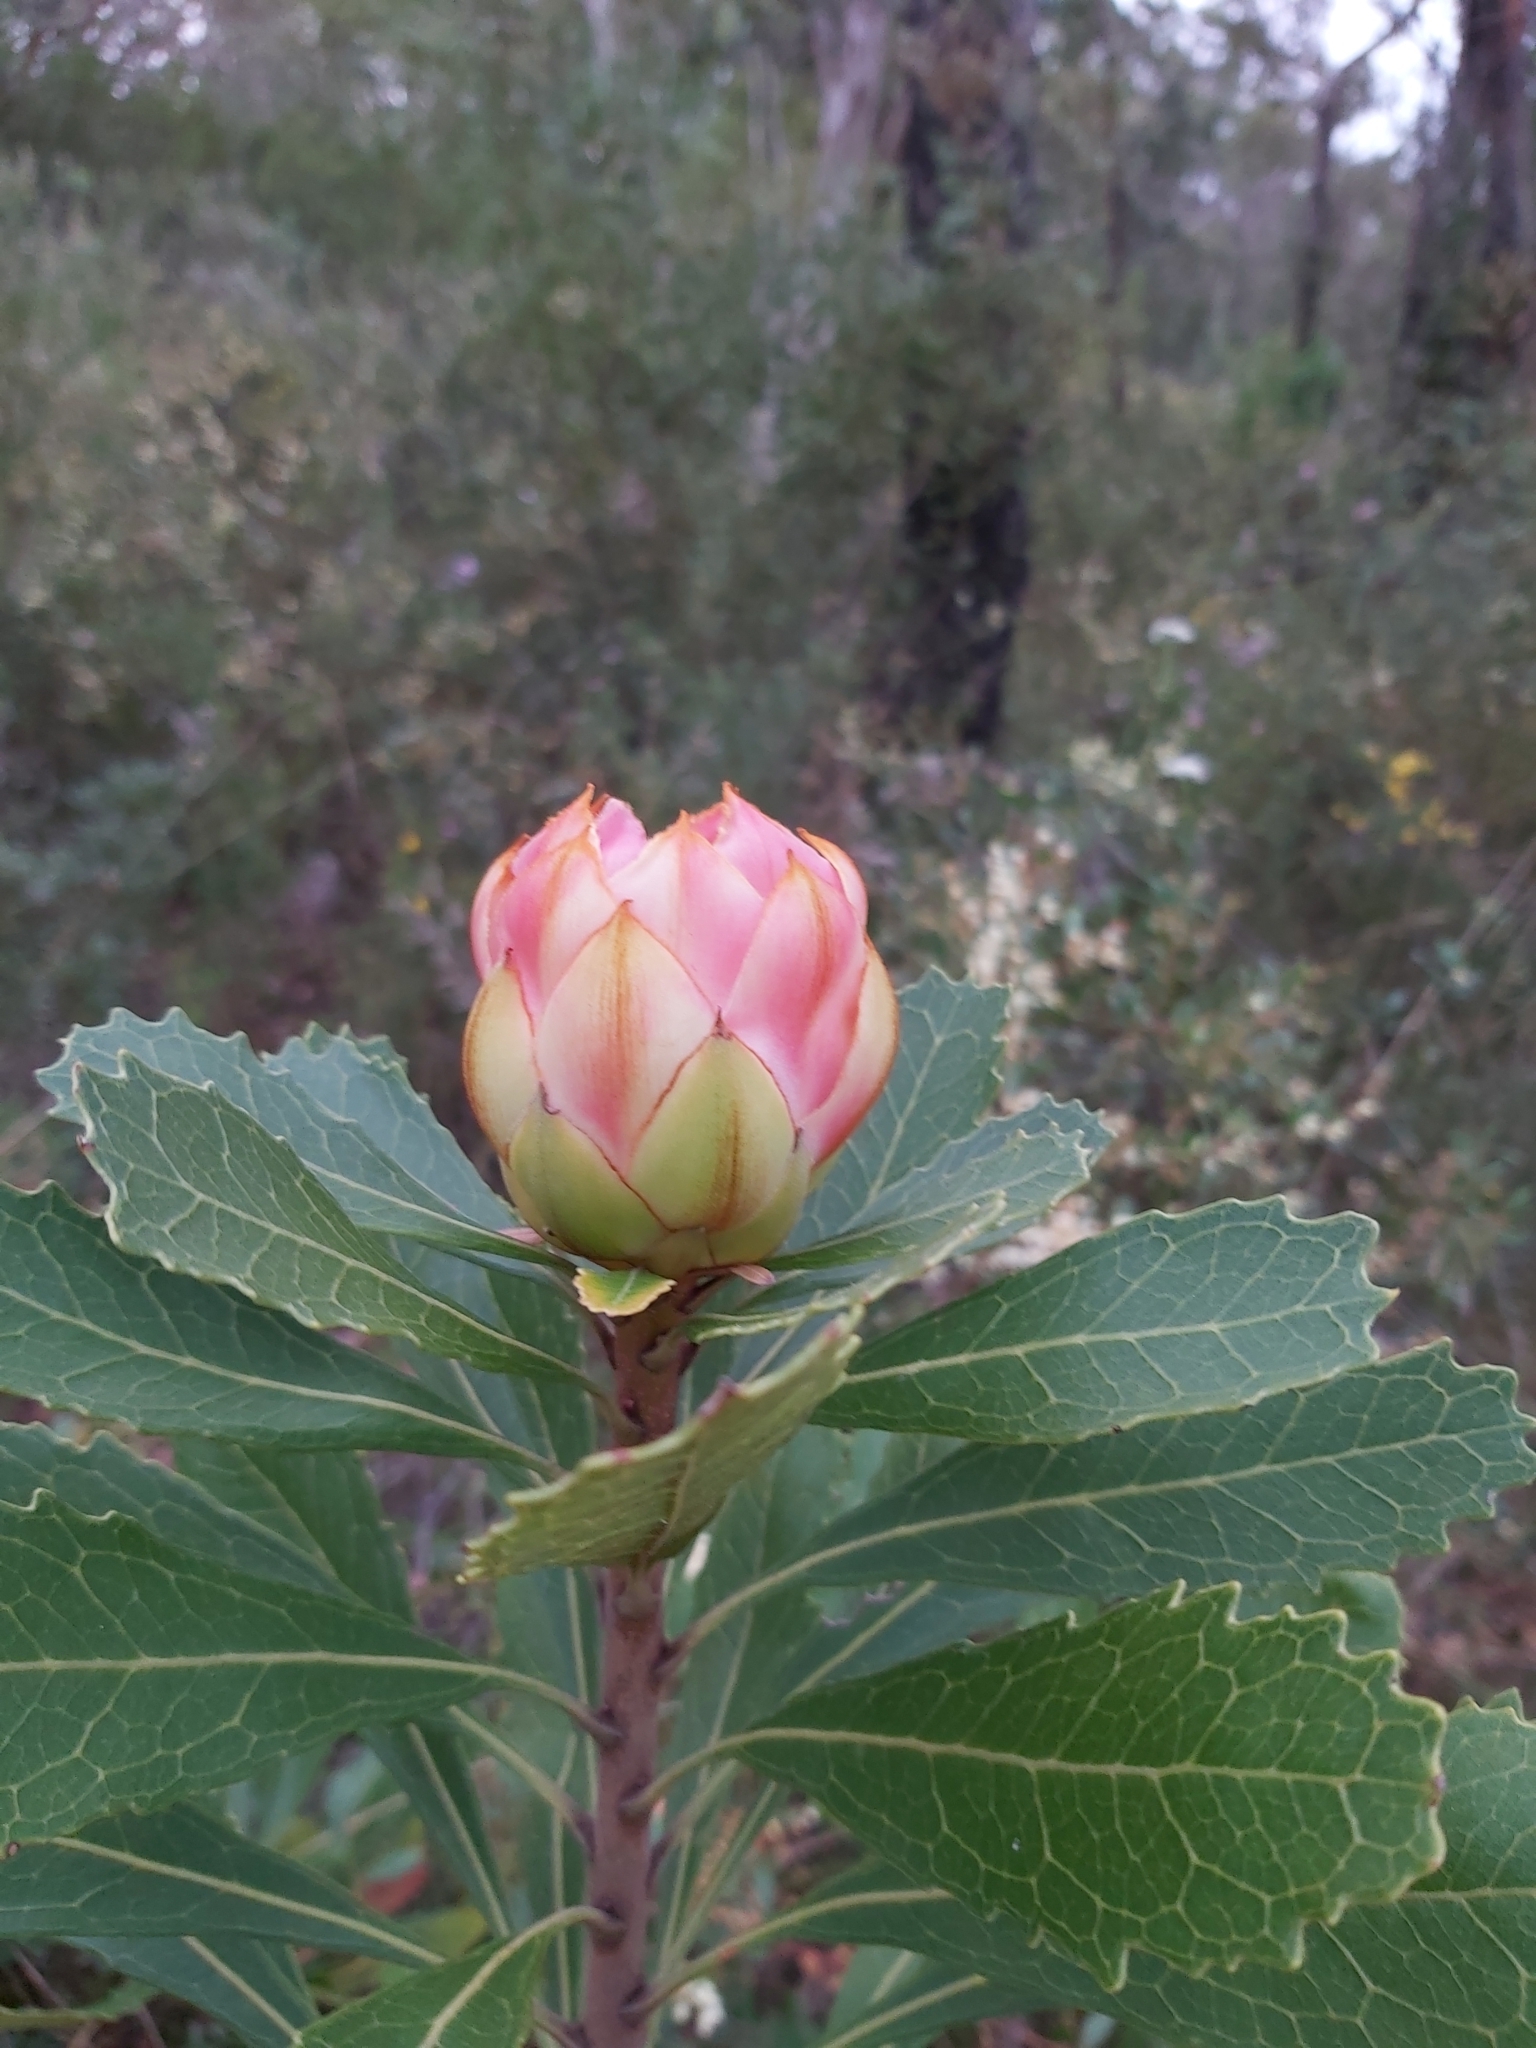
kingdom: Plantae
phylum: Tracheophyta
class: Magnoliopsida
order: Proteales
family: Proteaceae
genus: Telopea
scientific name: Telopea speciosissima
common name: New south wales waratah
